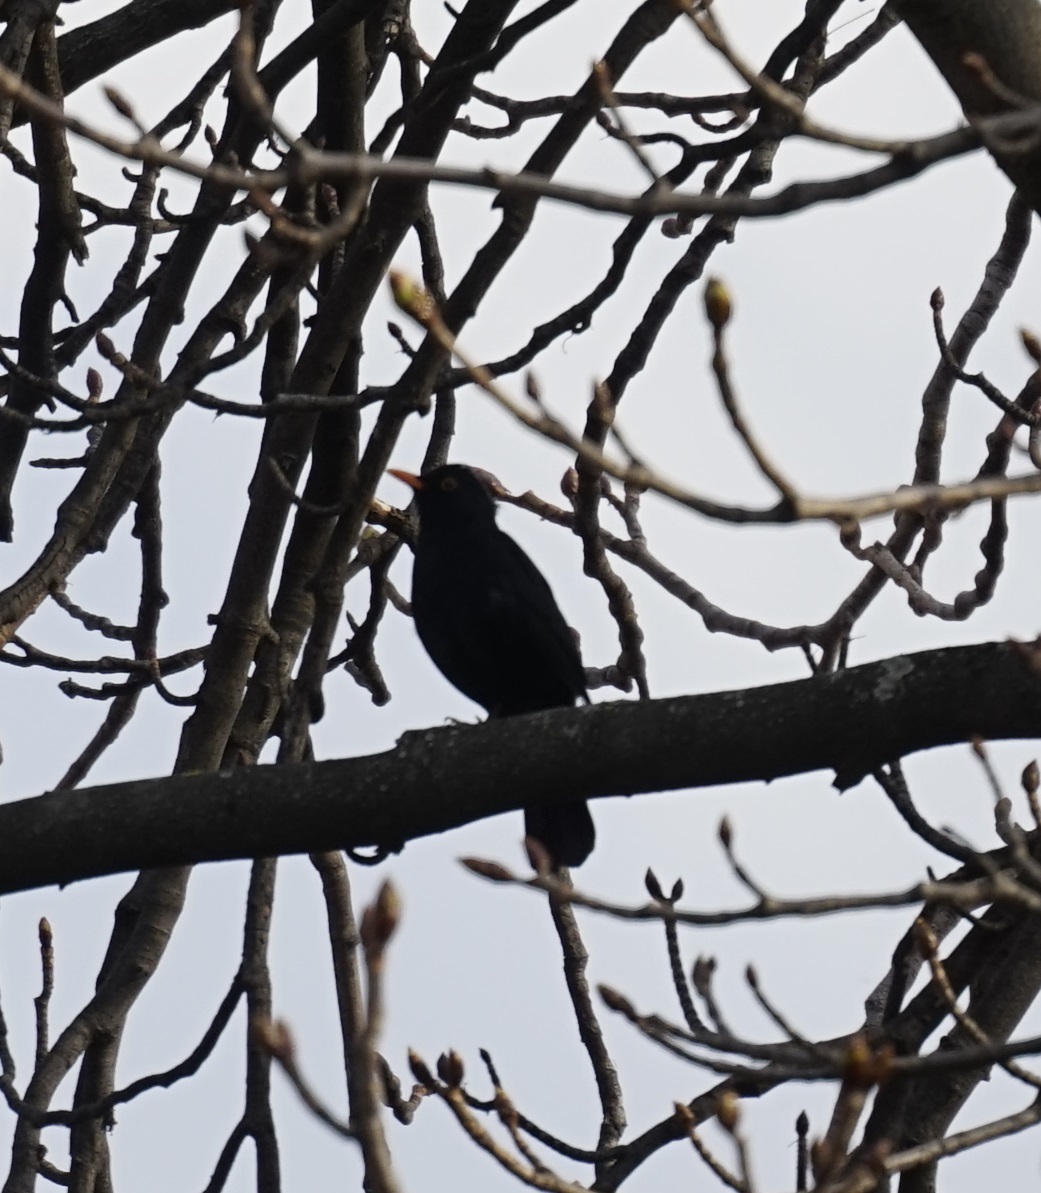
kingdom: Animalia
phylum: Chordata
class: Aves
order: Passeriformes
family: Turdidae
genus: Turdus
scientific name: Turdus merula
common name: Common blackbird
